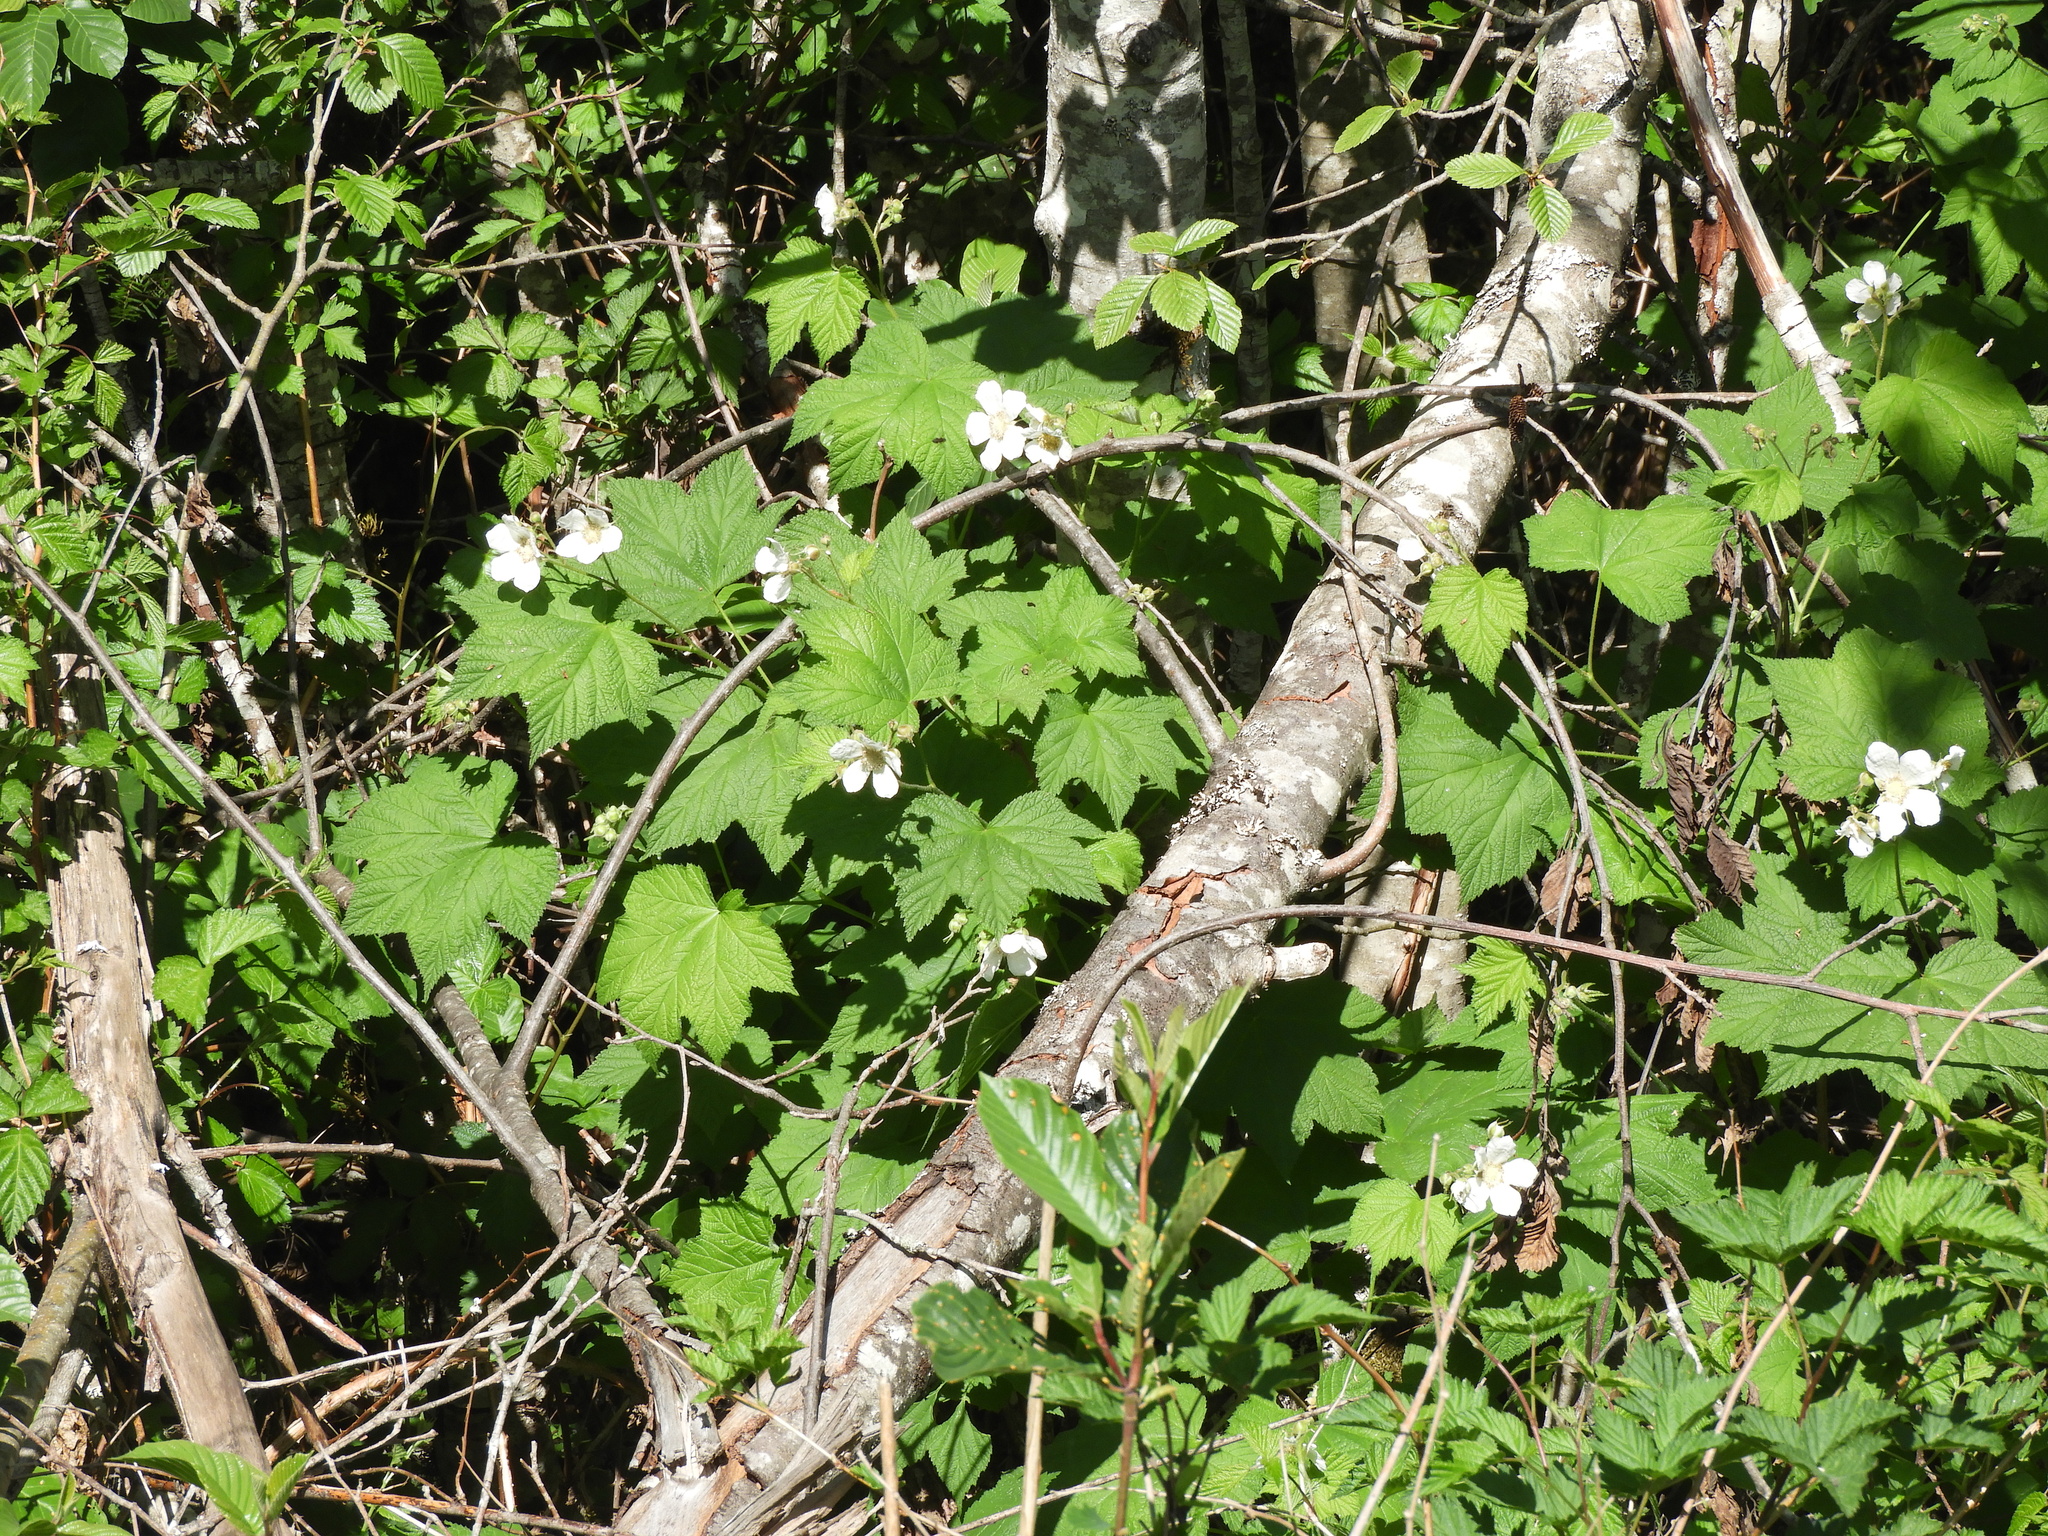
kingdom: Plantae
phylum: Tracheophyta
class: Magnoliopsida
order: Rosales
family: Rosaceae
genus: Rubus
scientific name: Rubus parviflorus
